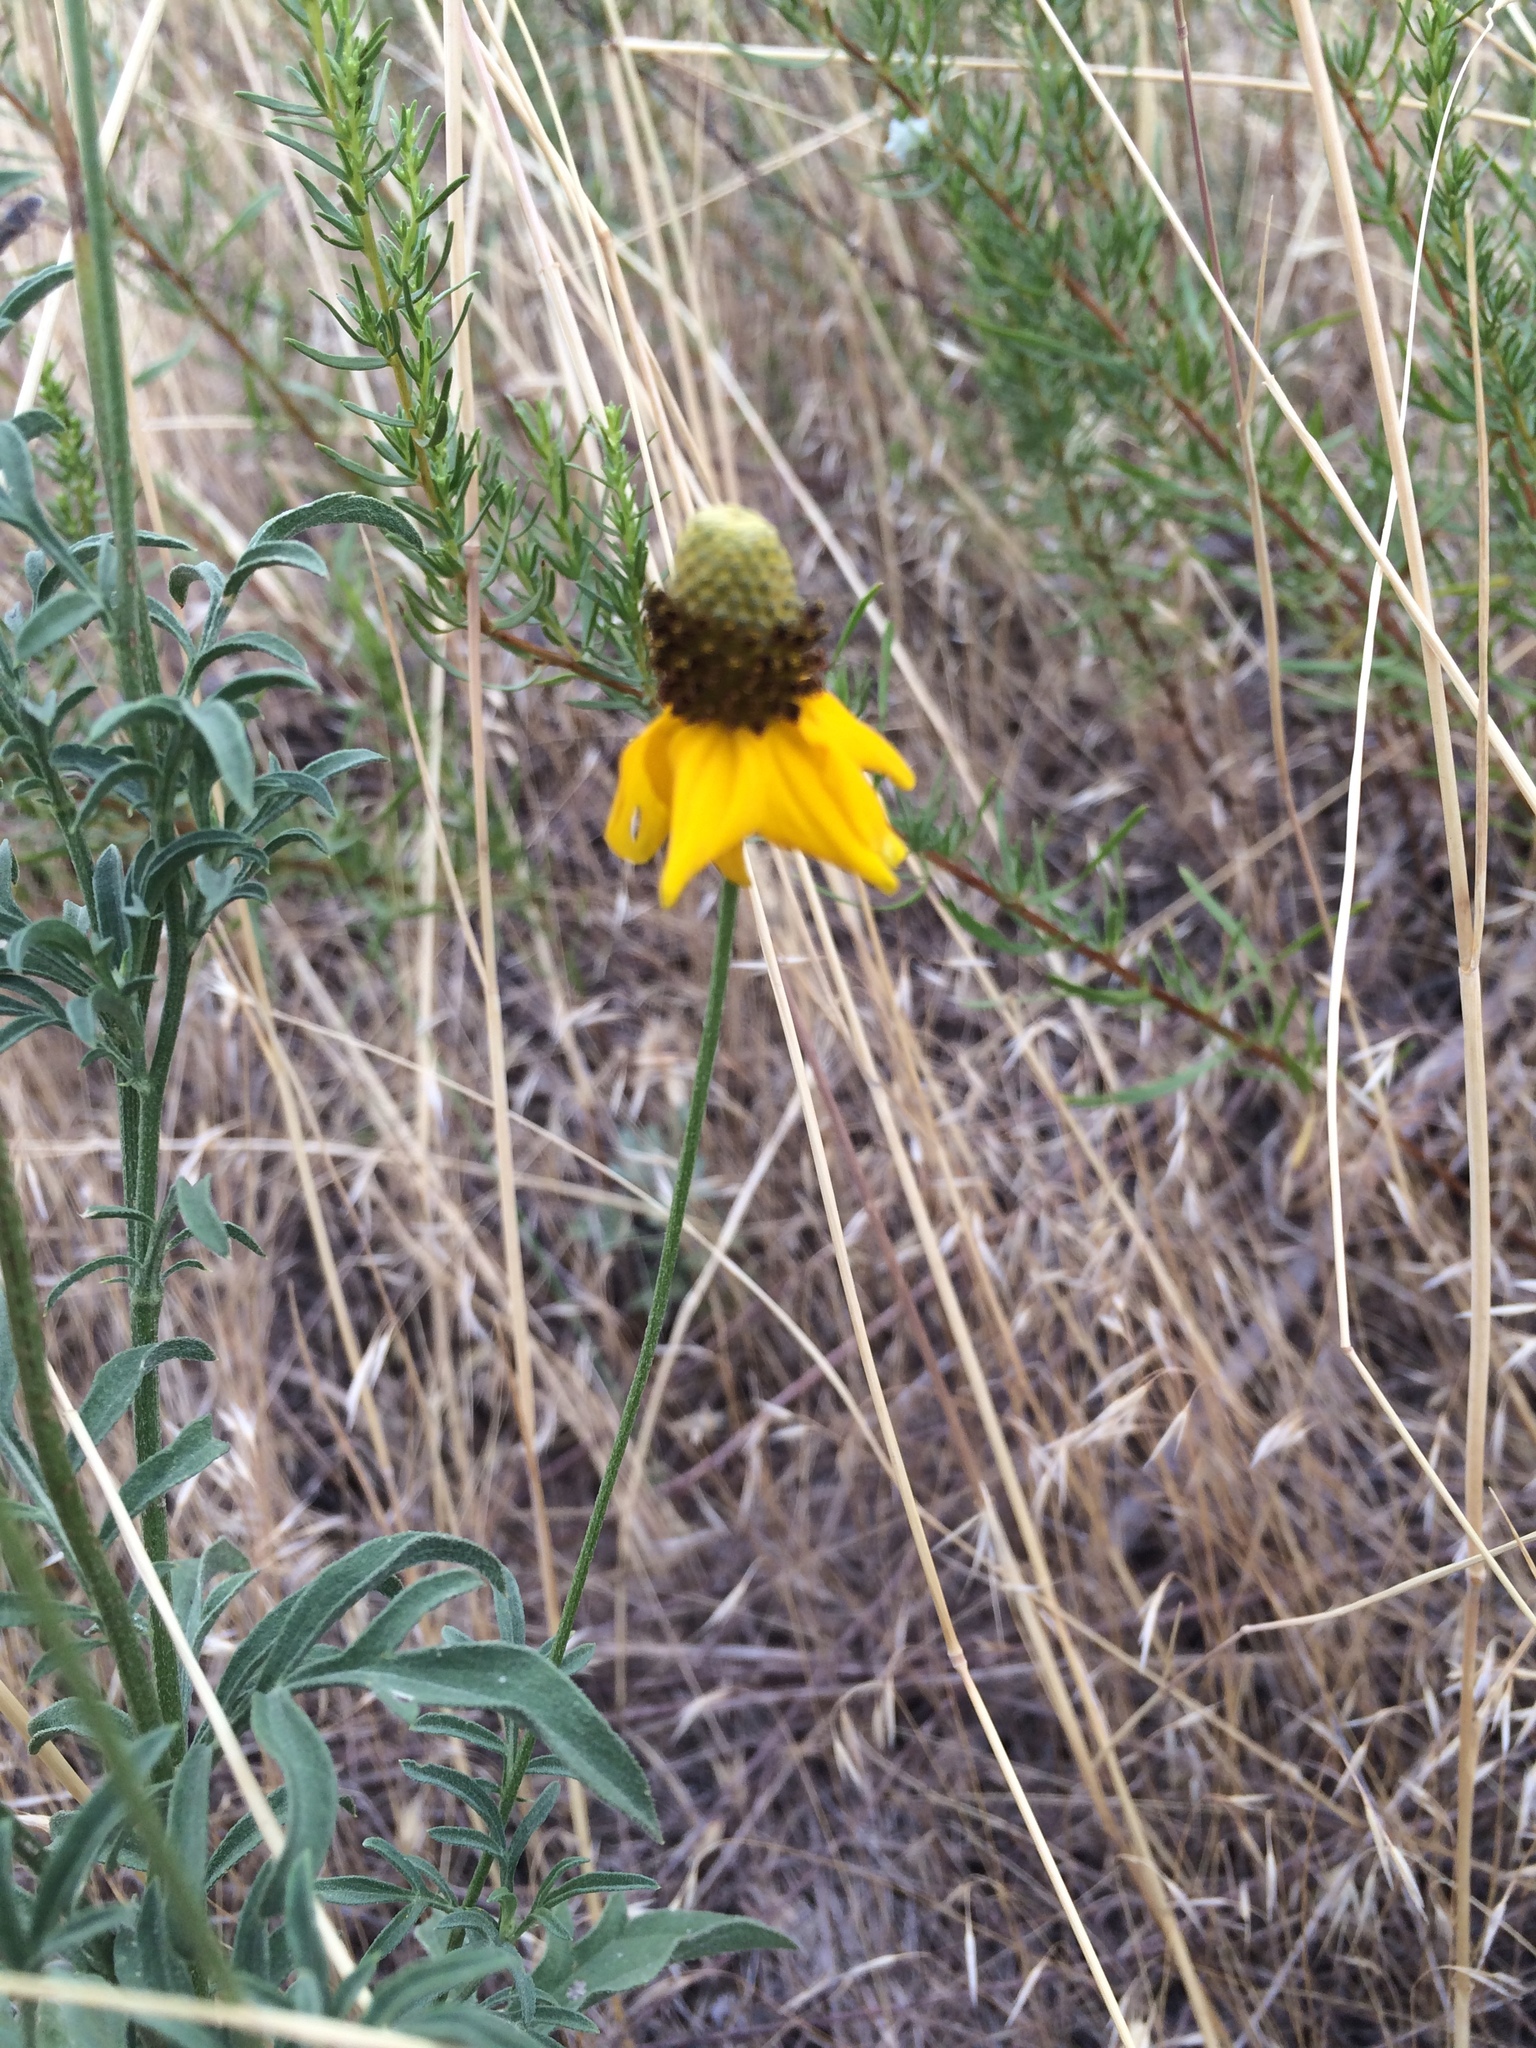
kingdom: Plantae
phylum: Tracheophyta
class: Magnoliopsida
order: Asterales
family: Asteraceae
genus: Ratibida
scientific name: Ratibida columnifera
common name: Prairie coneflower
